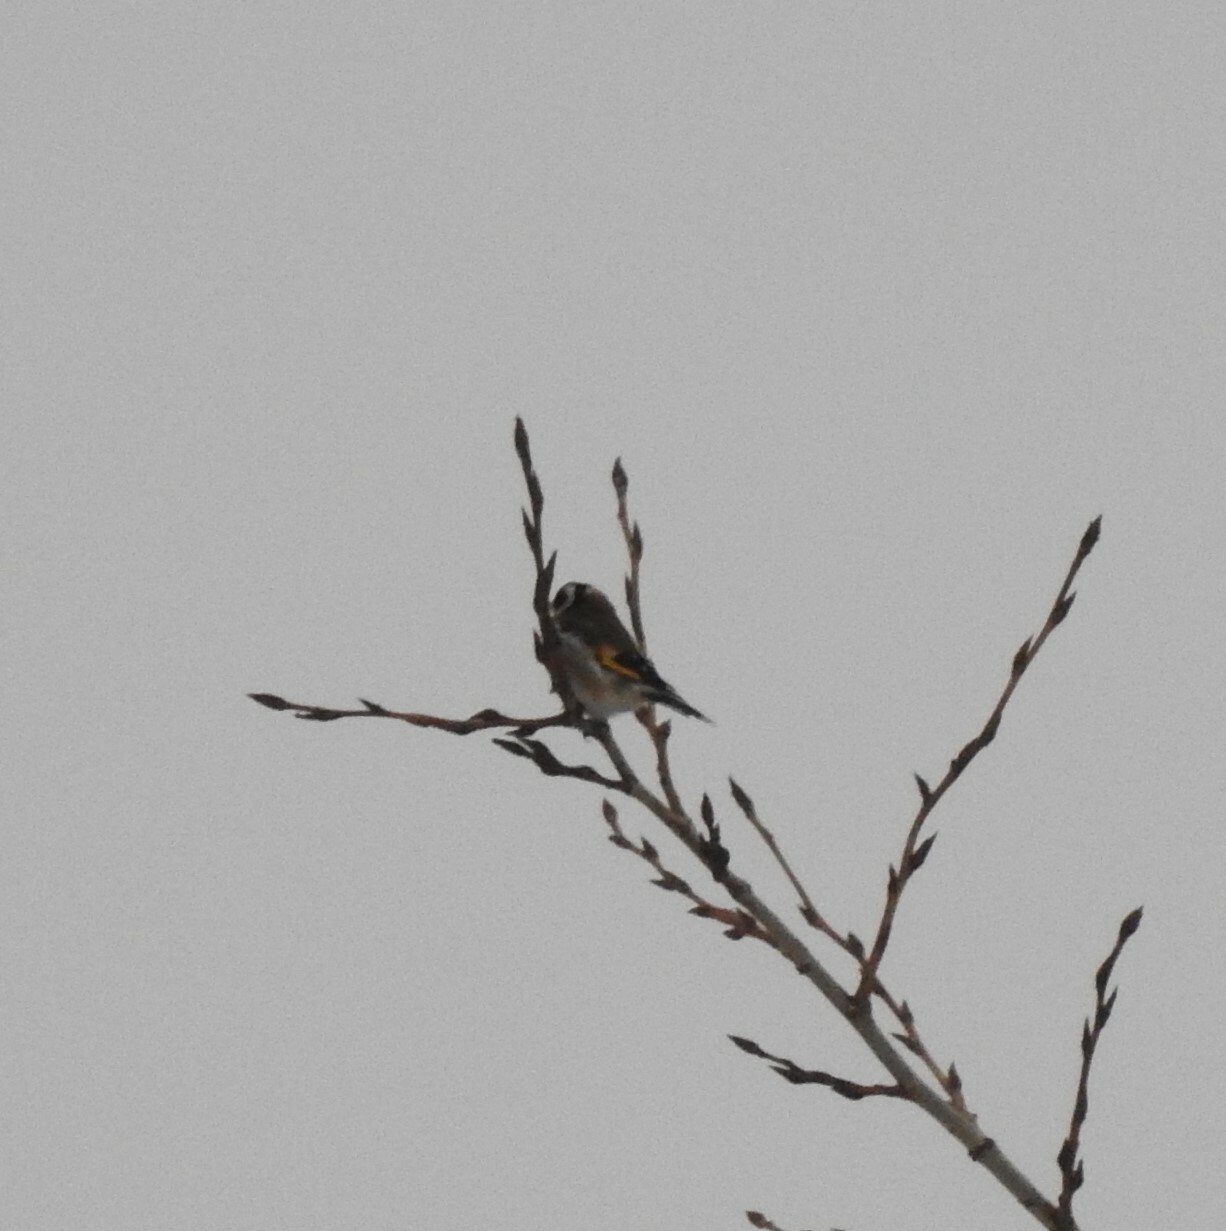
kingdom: Animalia
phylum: Chordata
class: Aves
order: Passeriformes
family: Fringillidae
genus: Carduelis
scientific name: Carduelis carduelis
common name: European goldfinch
